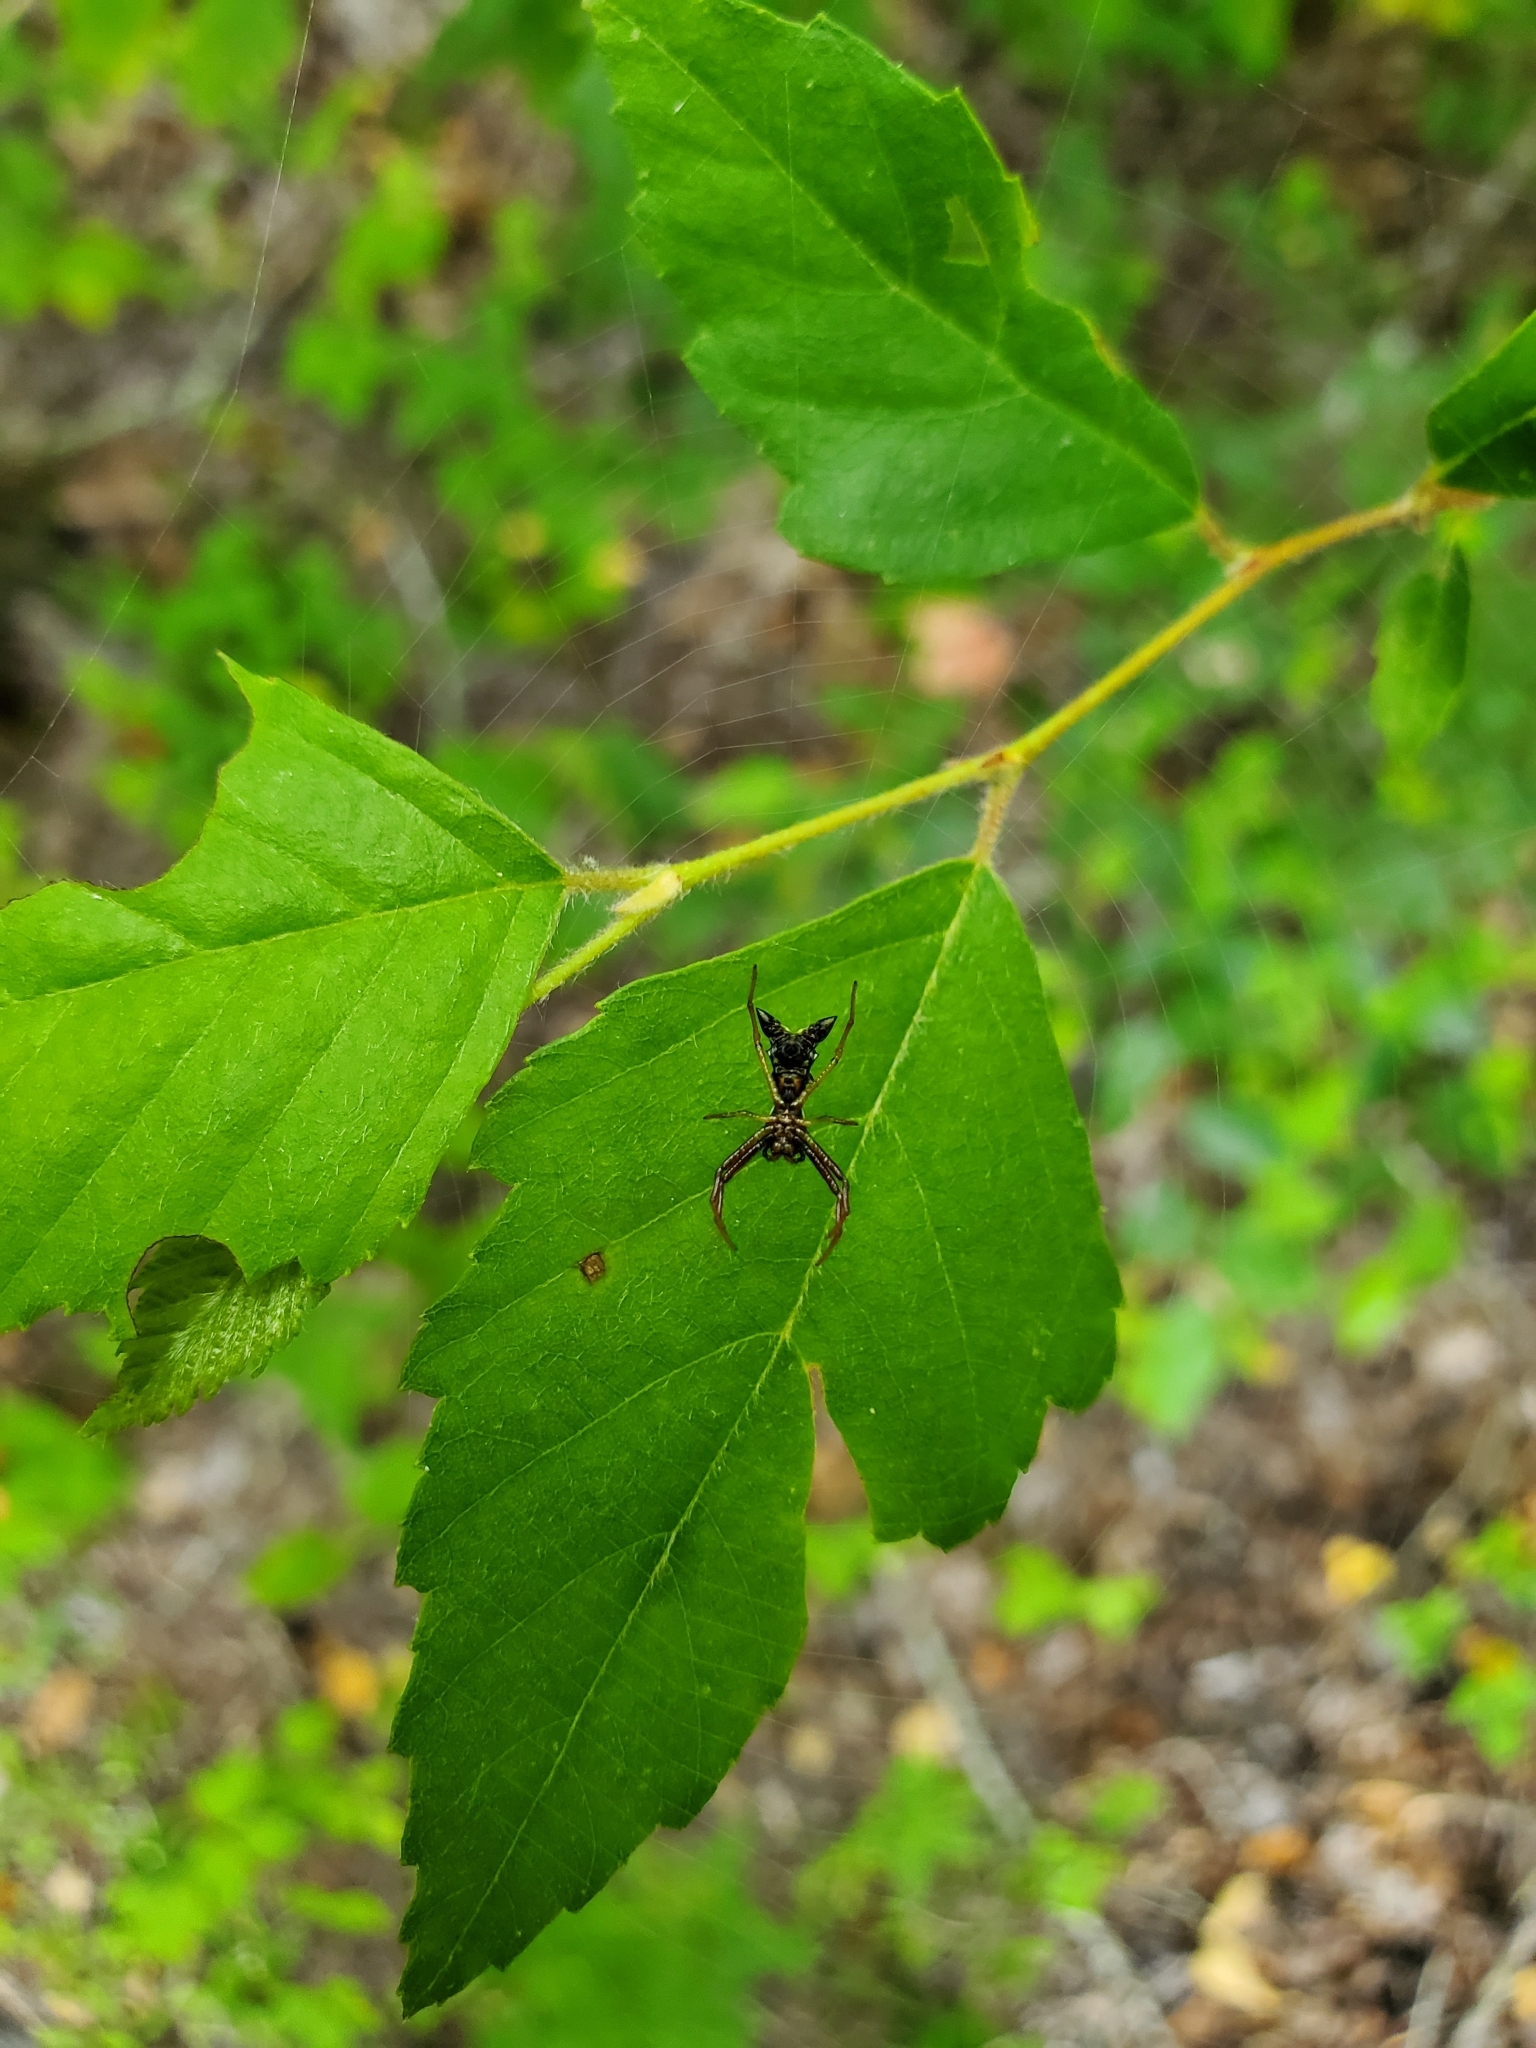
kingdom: Animalia
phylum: Arthropoda
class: Arachnida
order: Araneae
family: Araneidae
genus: Micrathena
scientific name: Micrathena sagittata
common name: Orb weavers
